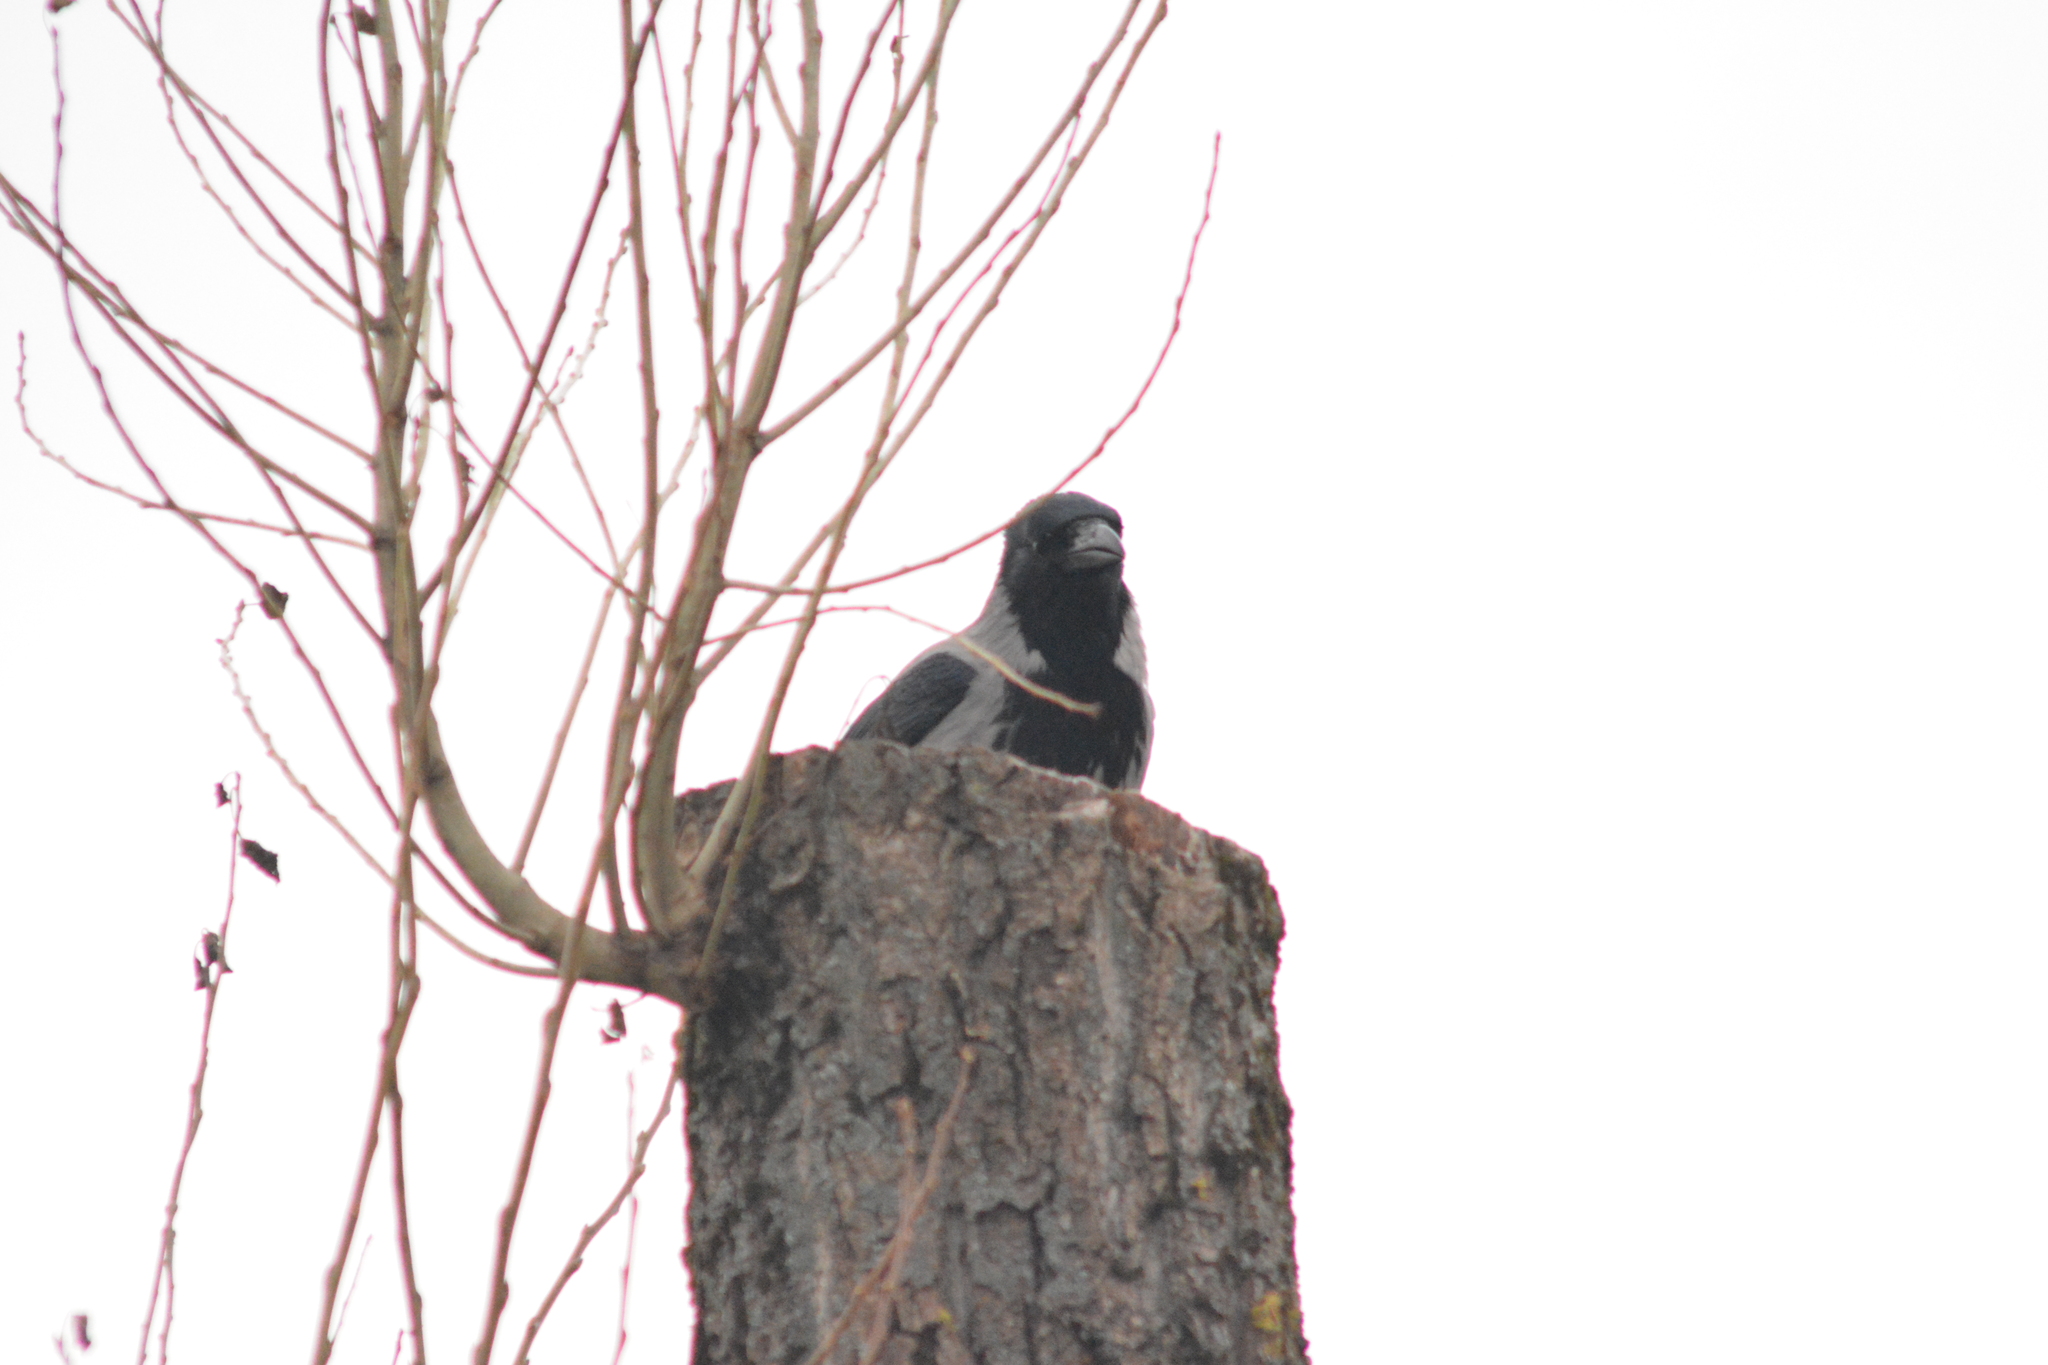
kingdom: Animalia
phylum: Chordata
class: Aves
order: Passeriformes
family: Corvidae
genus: Corvus
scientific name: Corvus cornix
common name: Hooded crow
